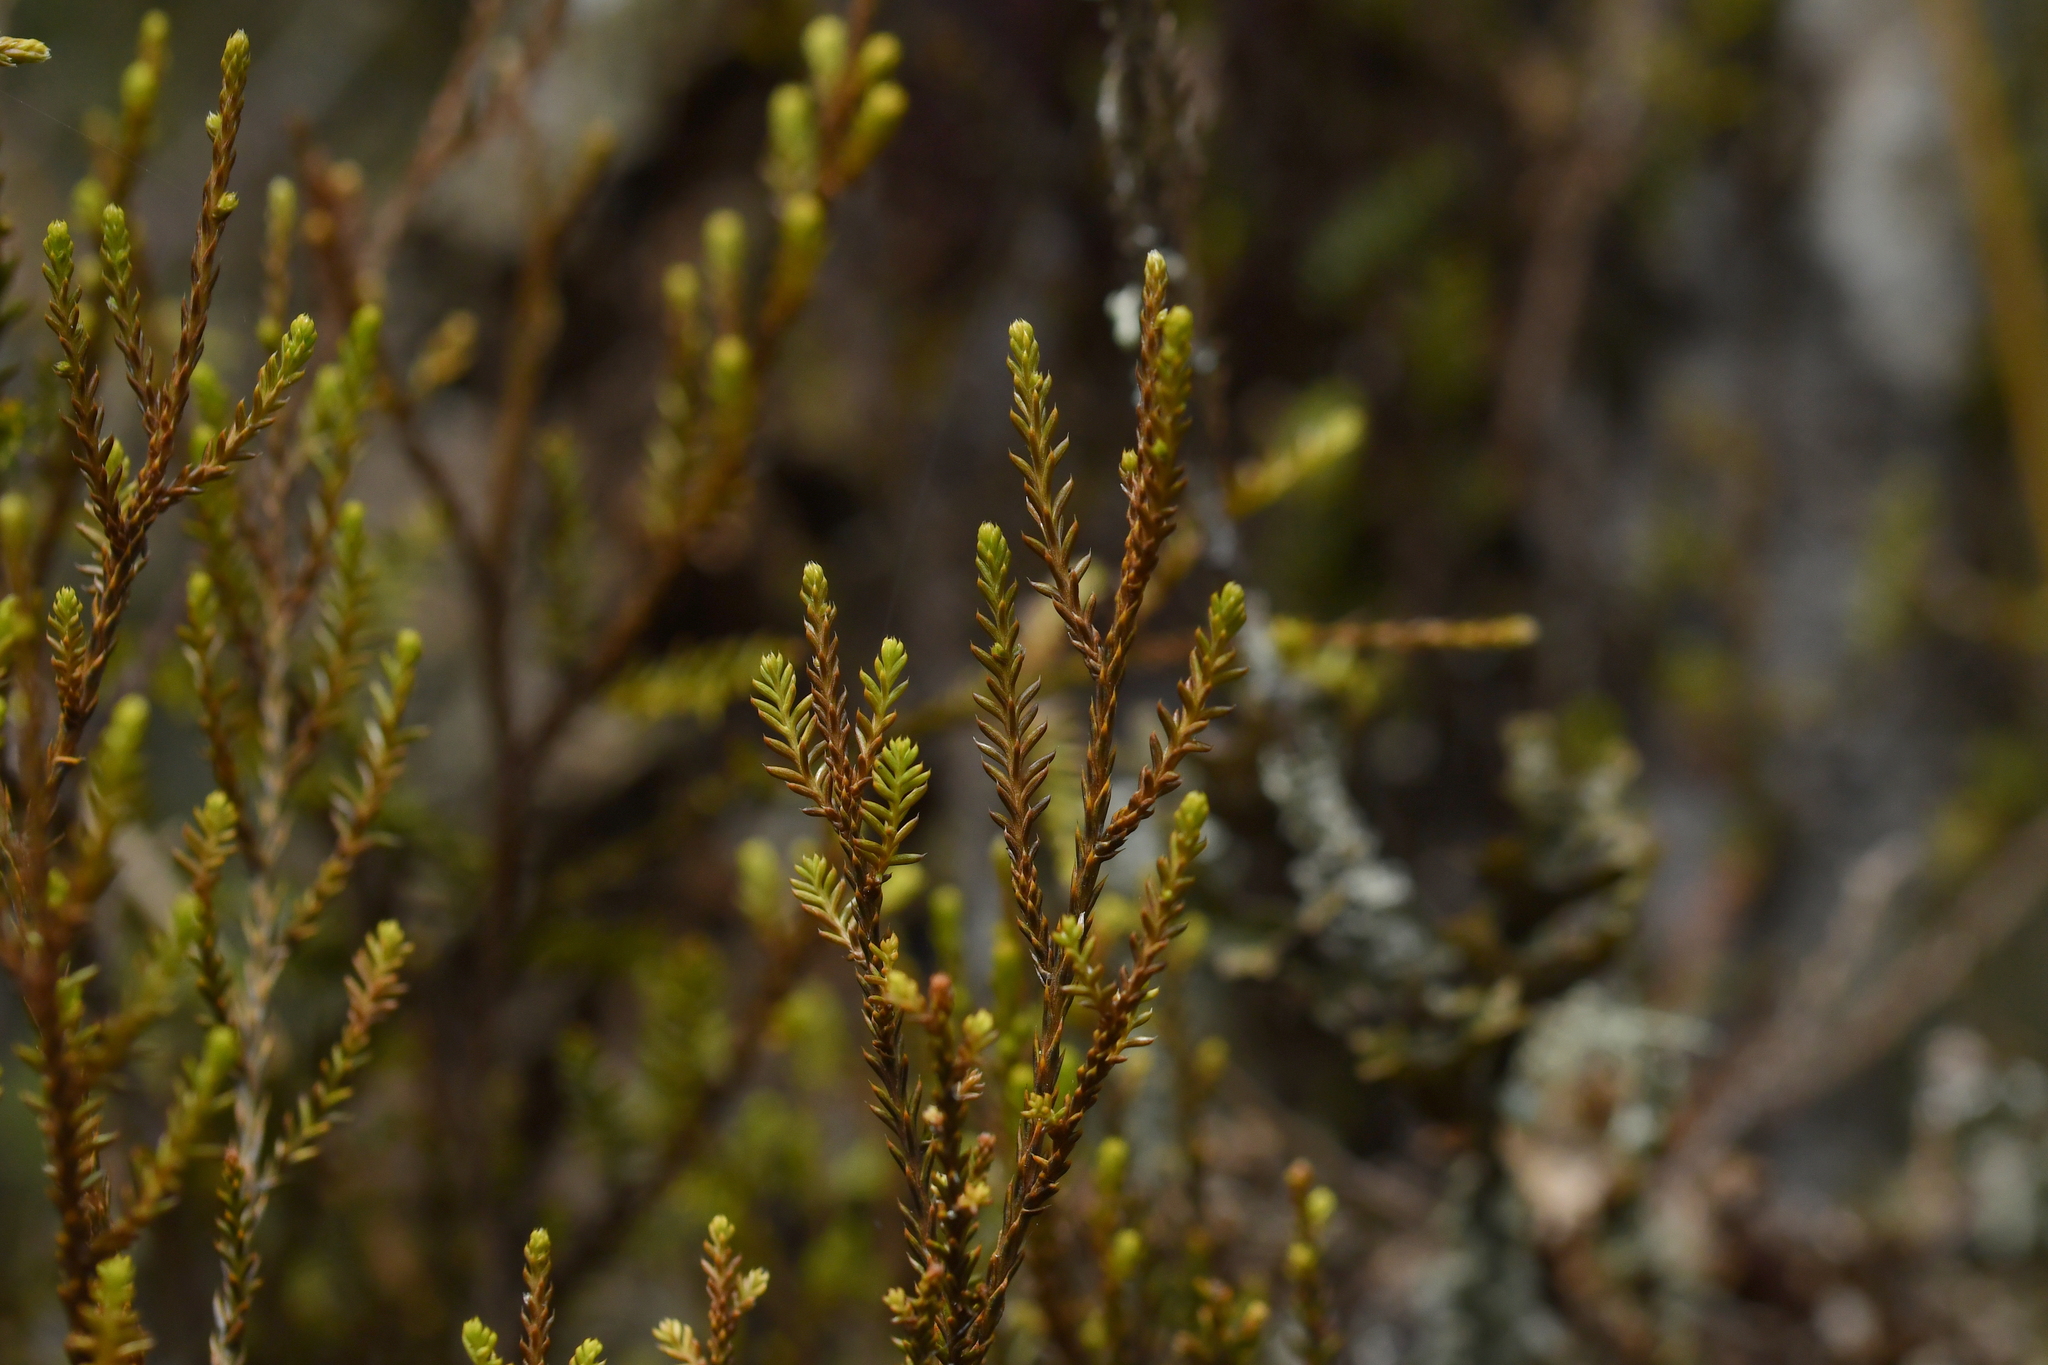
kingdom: Plantae
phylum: Tracheophyta
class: Pinopsida
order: Pinales
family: Podocarpaceae
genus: Lepidothamnus
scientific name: Lepidothamnus intermedius
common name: Yellow silver pine
